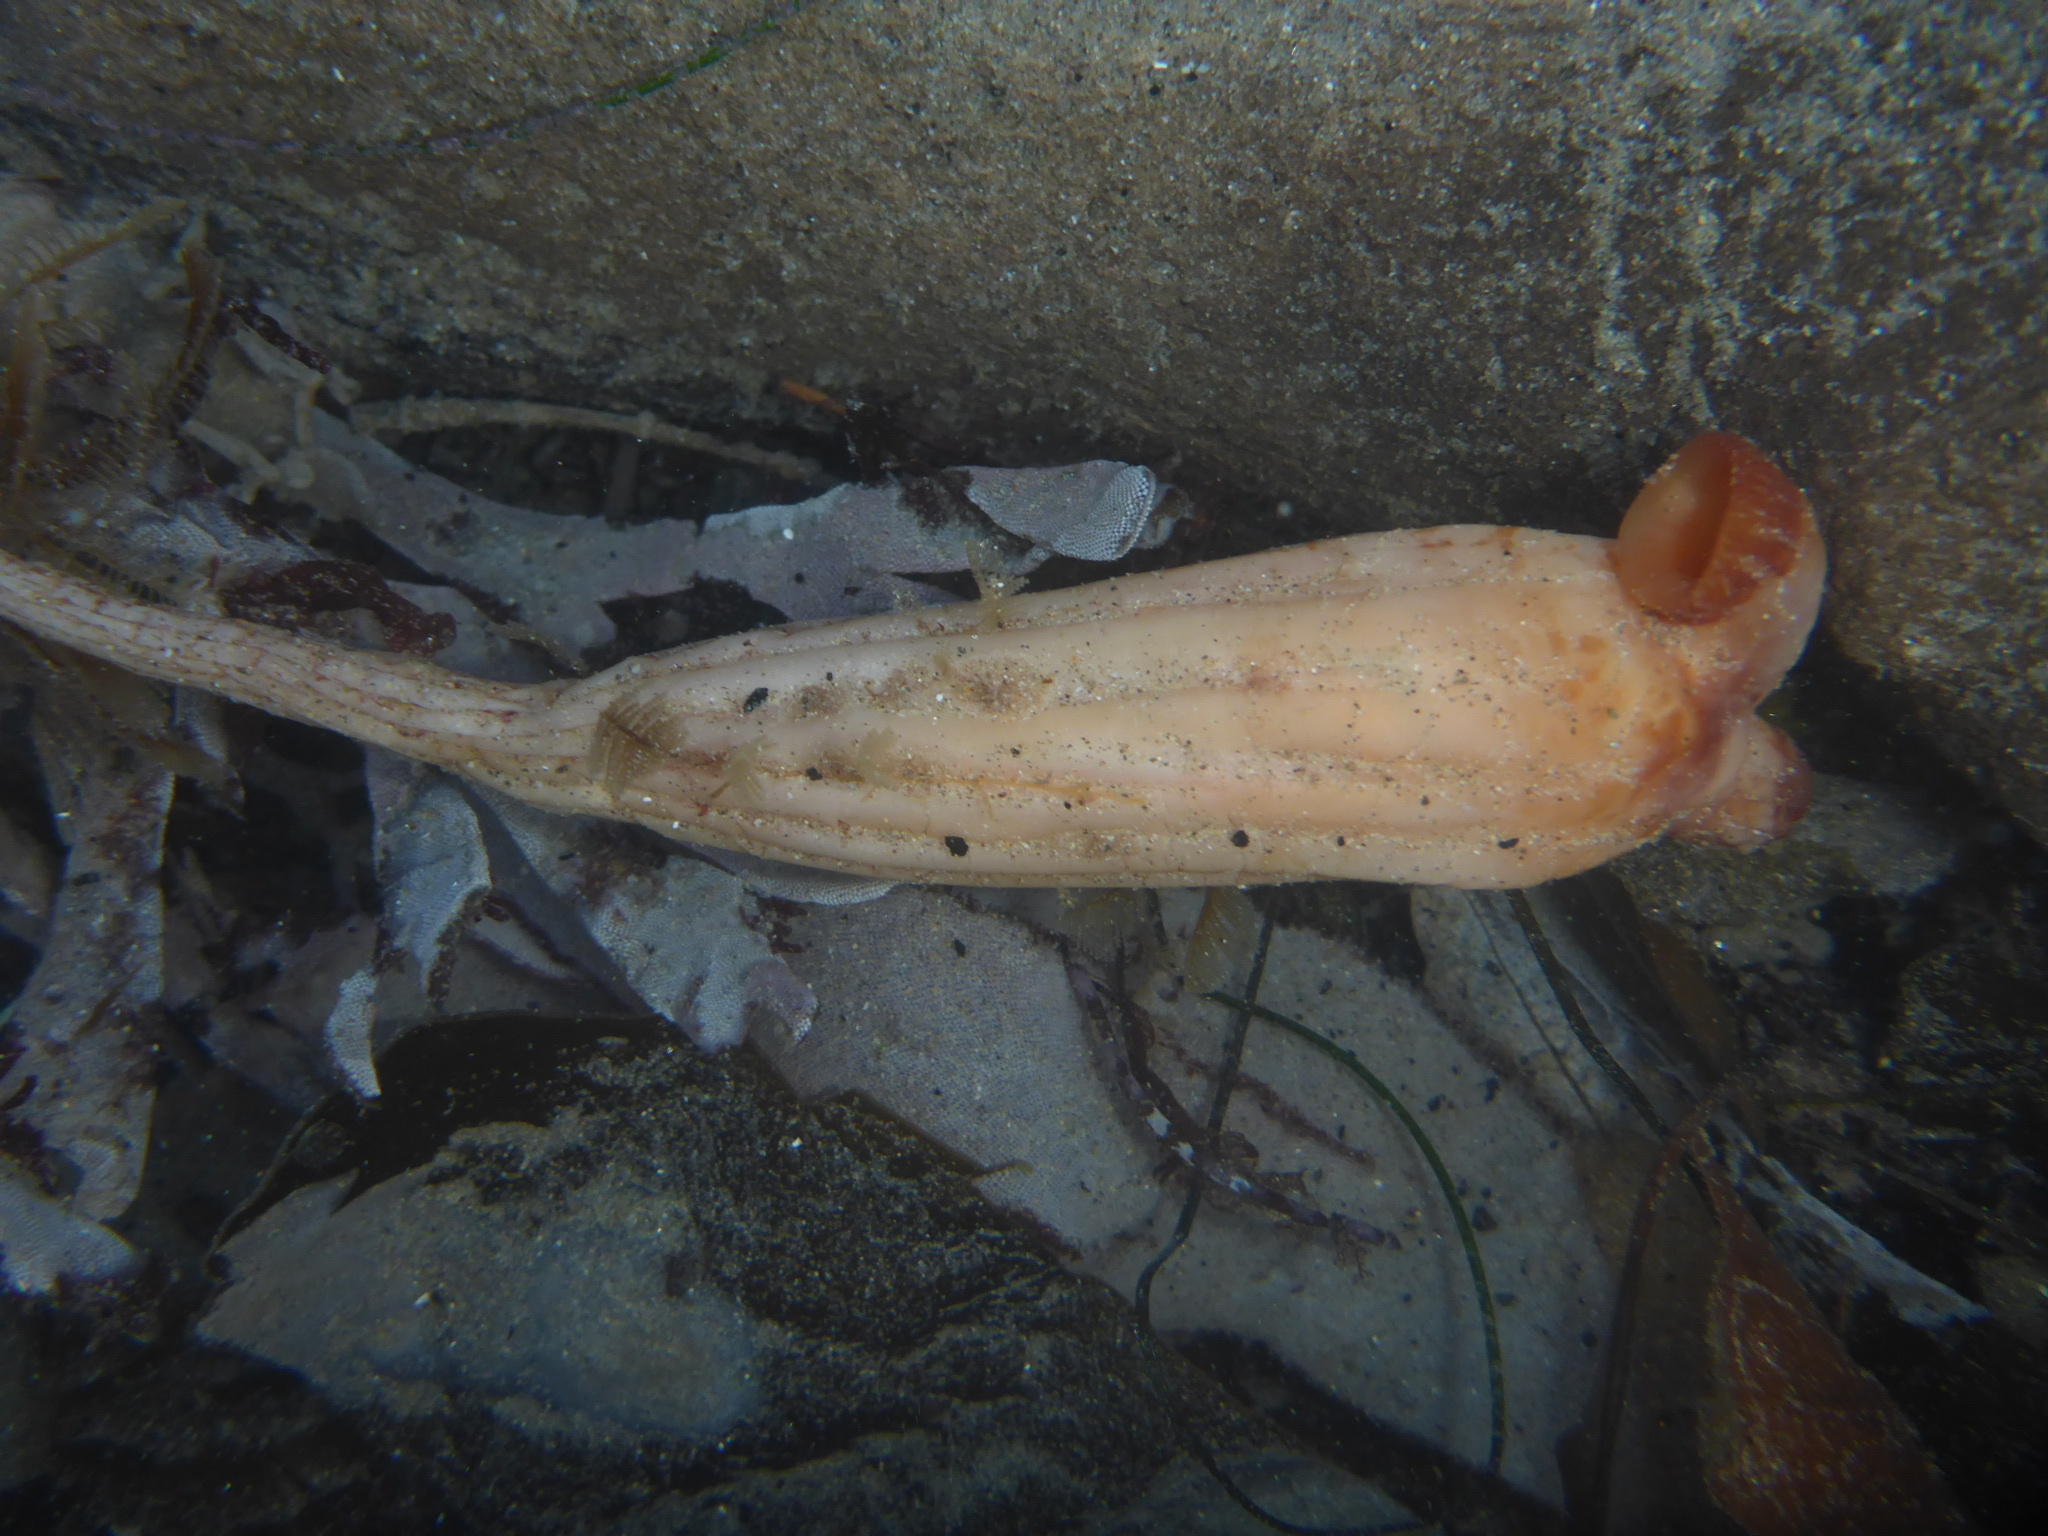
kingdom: Animalia
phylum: Chordata
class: Ascidiacea
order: Stolidobranchia
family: Styelidae
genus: Styela
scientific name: Styela montereyensis
